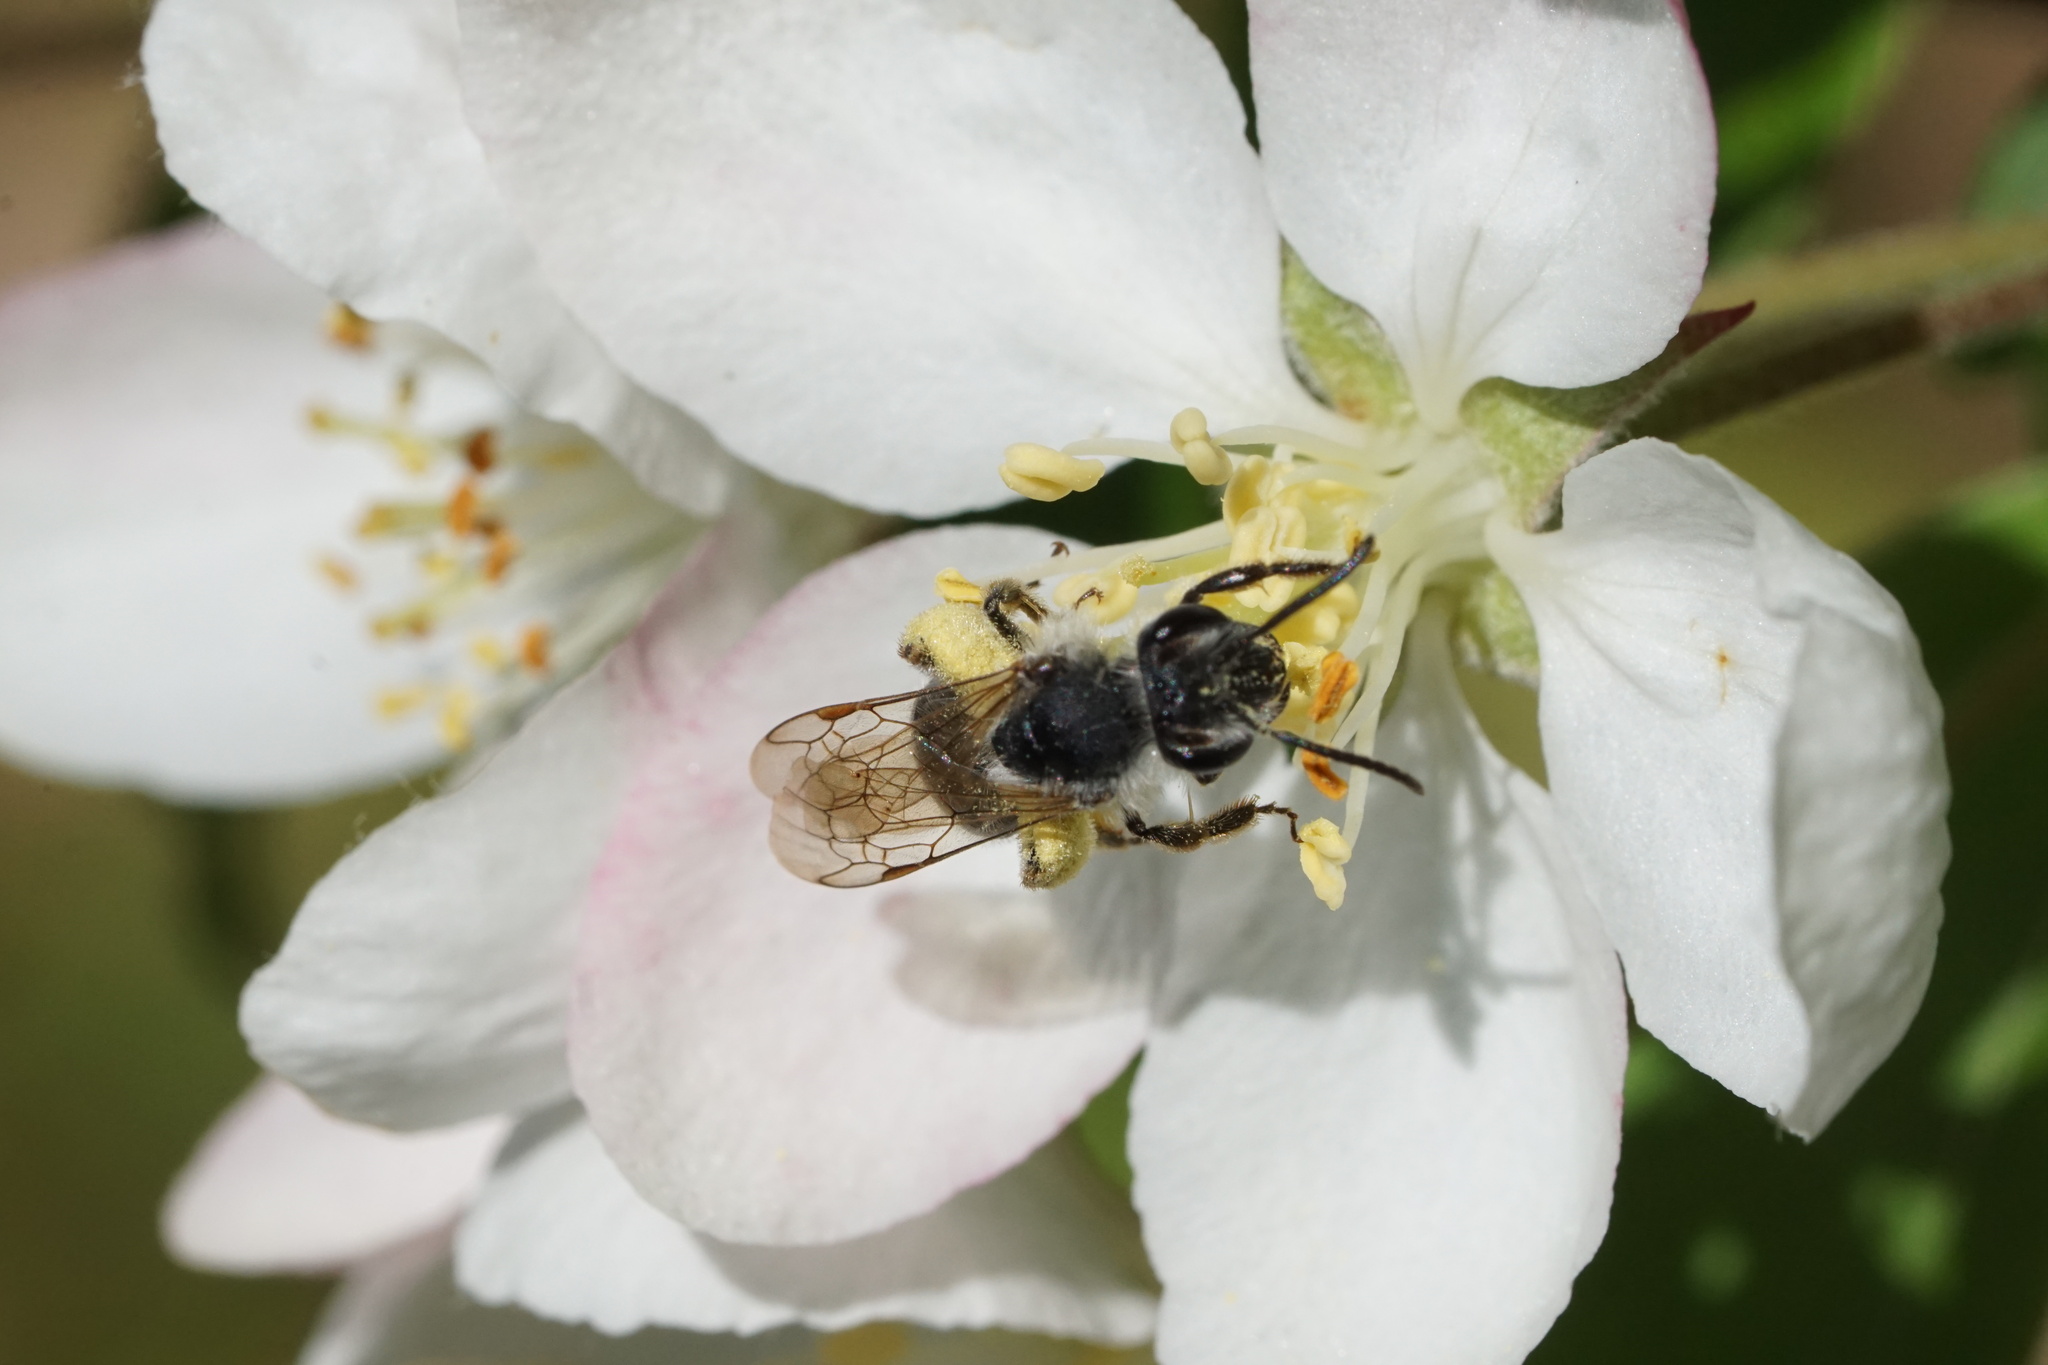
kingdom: Animalia
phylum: Arthropoda
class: Insecta
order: Hymenoptera
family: Andrenidae
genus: Andrena
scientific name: Andrena tridens
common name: Trident miner bee
